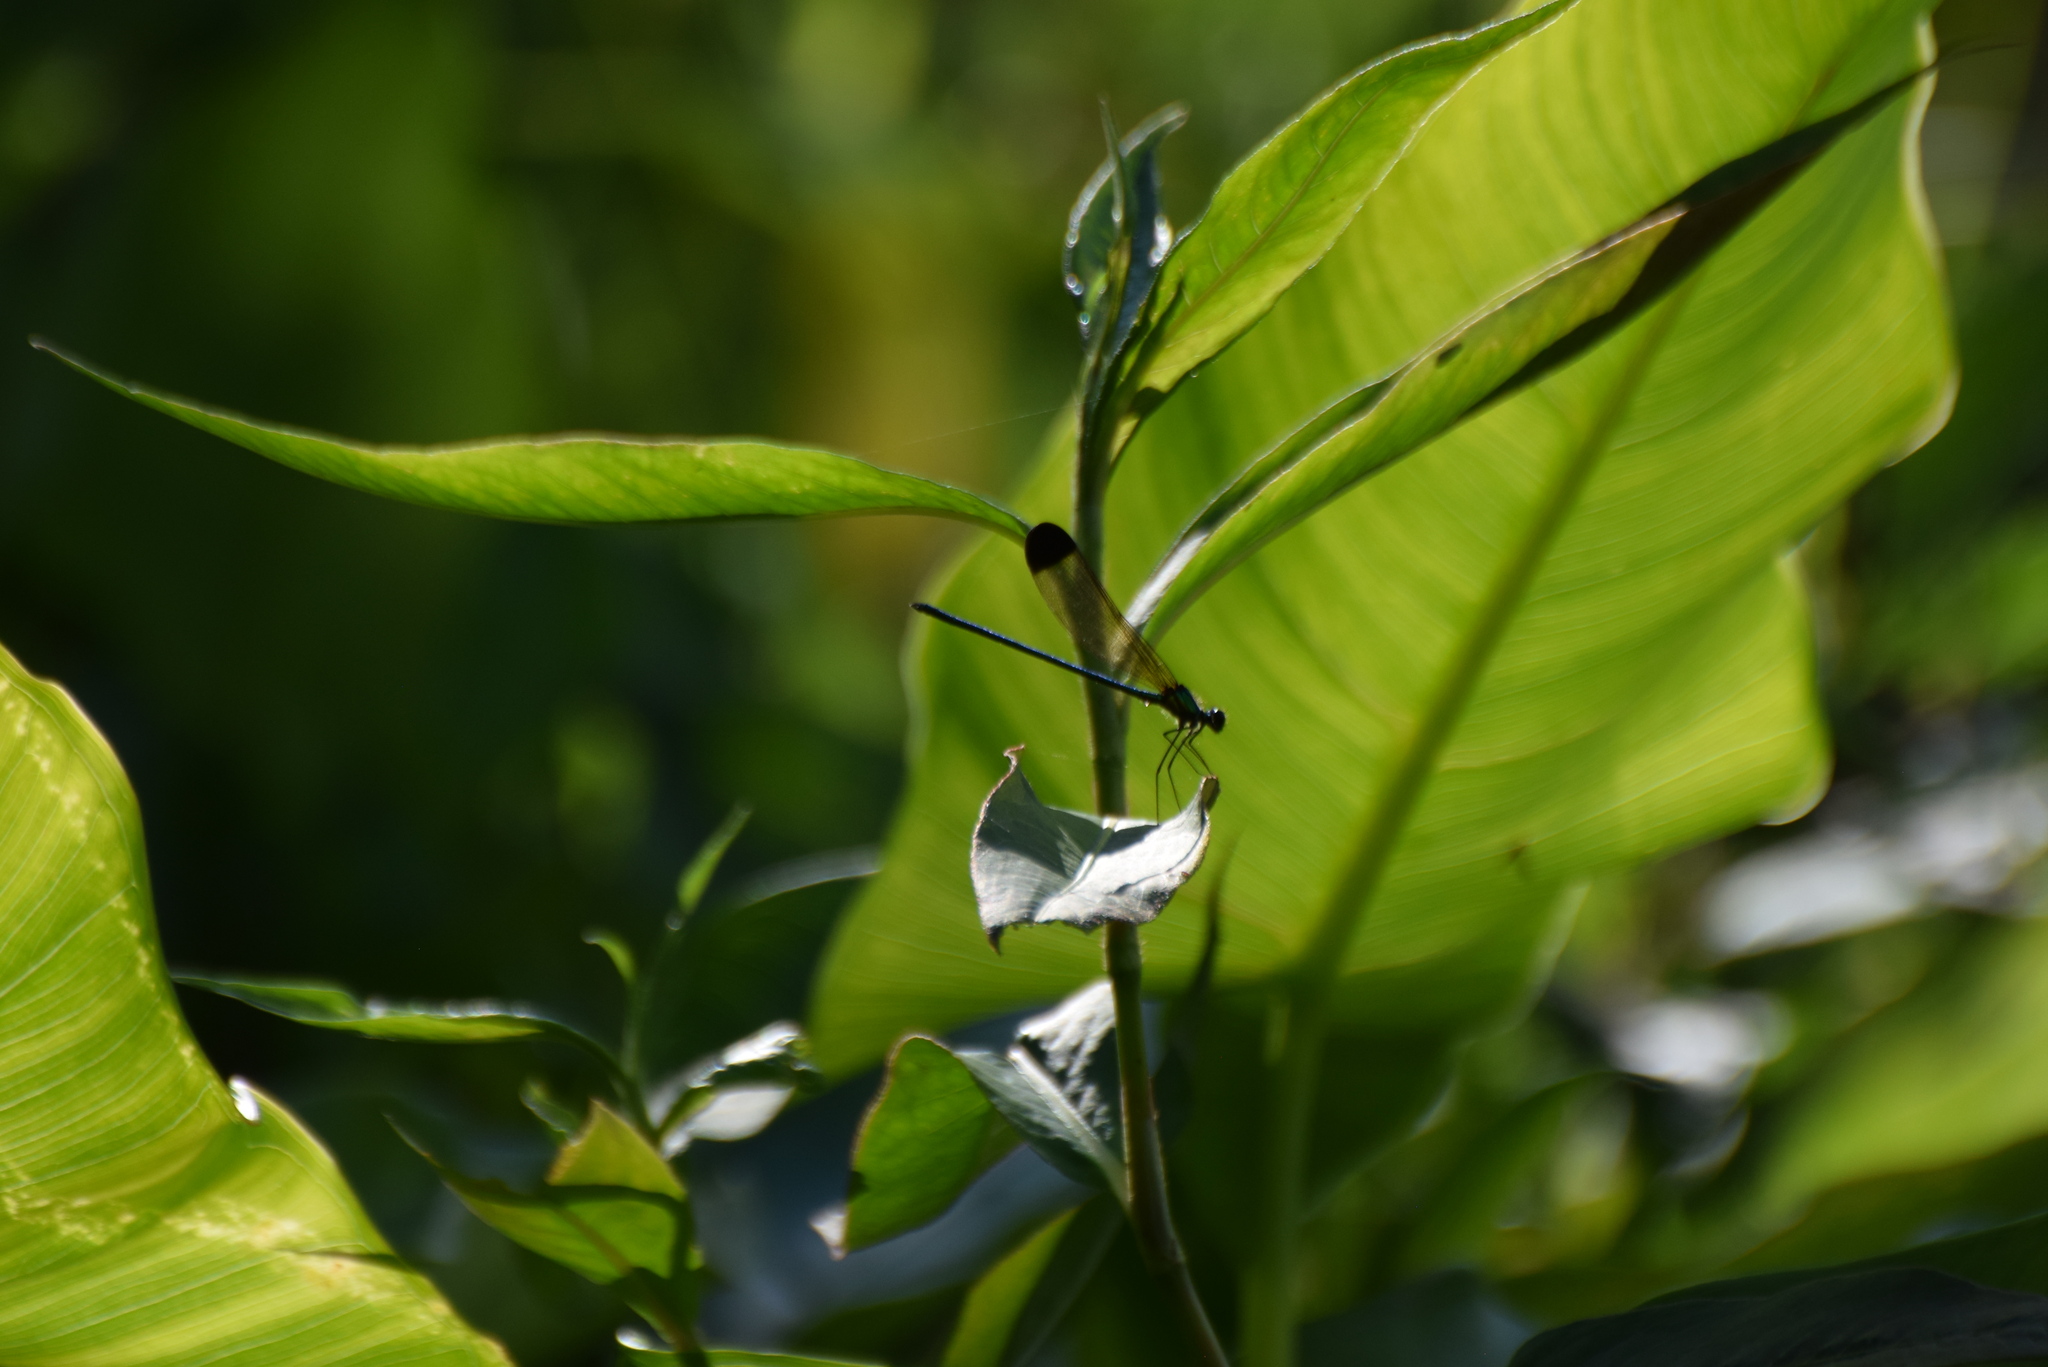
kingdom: Animalia
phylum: Arthropoda
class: Insecta
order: Odonata
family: Calopterygidae
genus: Calopteryx
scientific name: Calopteryx dimidiata
